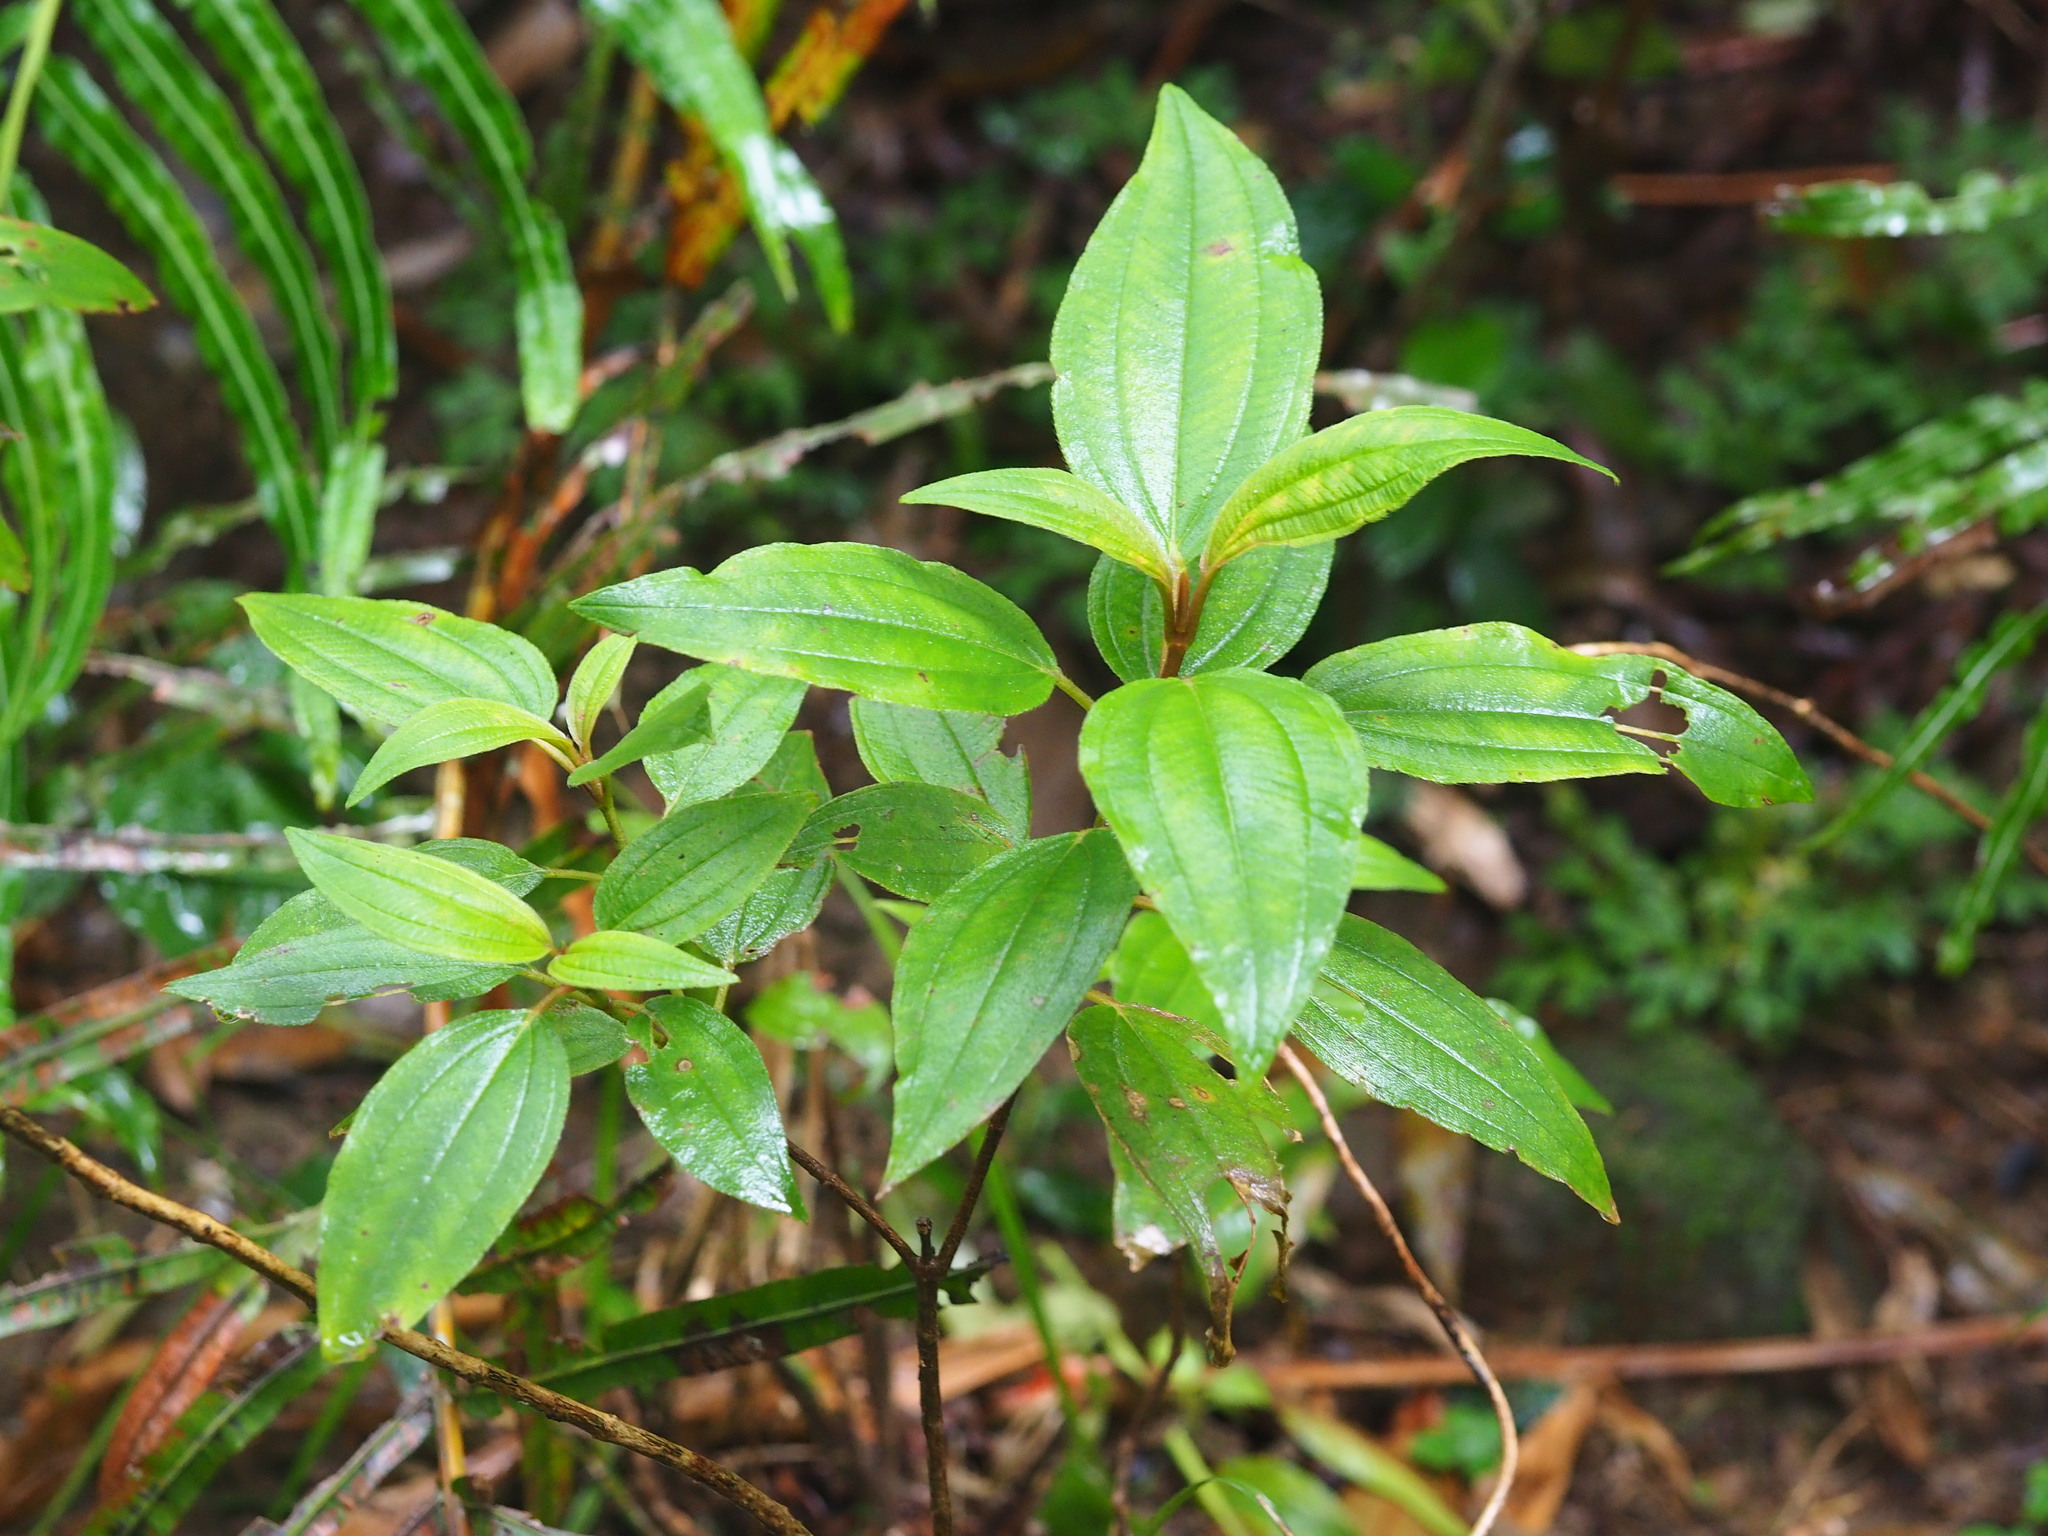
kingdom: Plantae
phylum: Tracheophyta
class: Magnoliopsida
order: Myrtales
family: Melastomataceae
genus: Melastoma
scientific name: Melastoma malabathricum
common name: Indian-rhododendron
